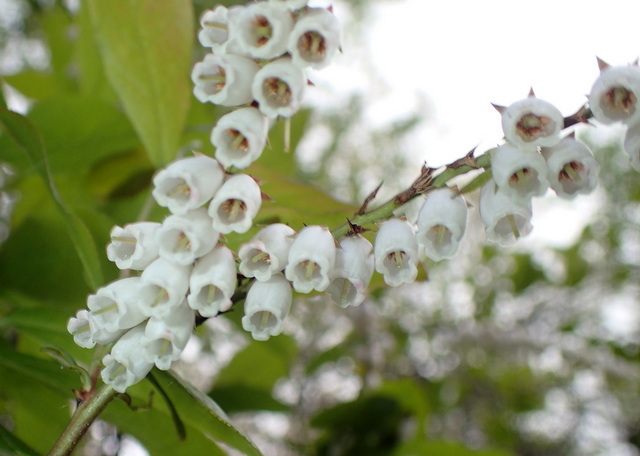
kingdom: Plantae
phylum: Tracheophyta
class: Magnoliopsida
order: Ericales
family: Ericaceae
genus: Eubotrys
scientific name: Eubotrys racemosa
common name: Fetterbush
